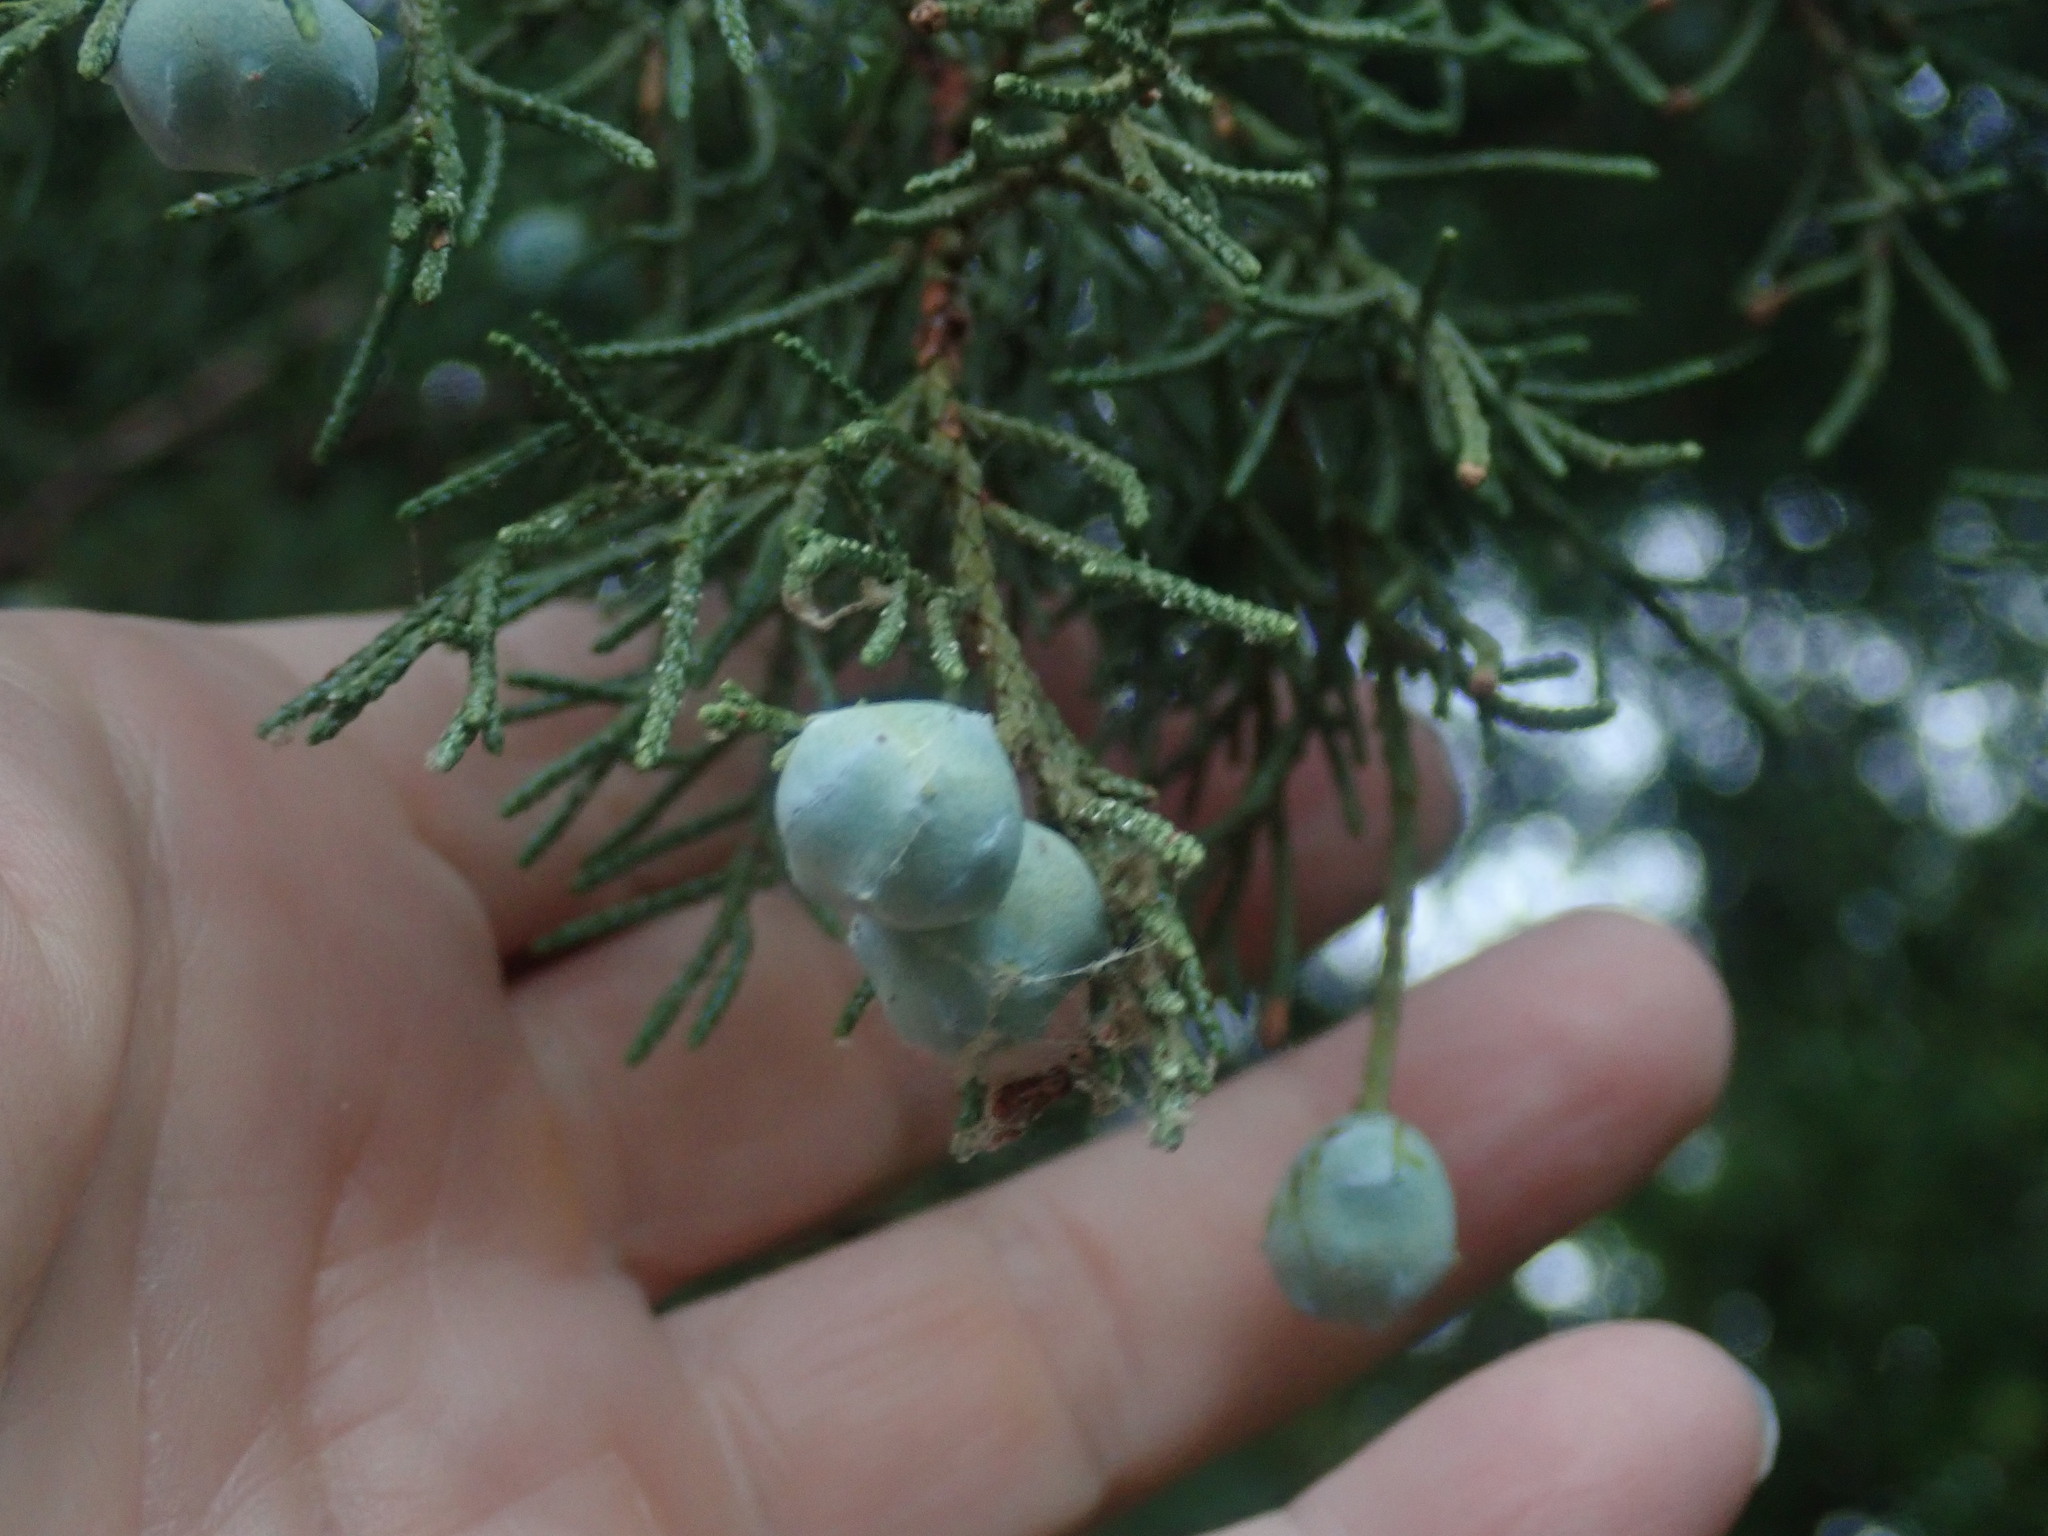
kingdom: Plantae
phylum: Tracheophyta
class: Pinopsida
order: Pinales
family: Cupressaceae
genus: Juniperus
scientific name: Juniperus deppeana
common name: Alligator juniper
